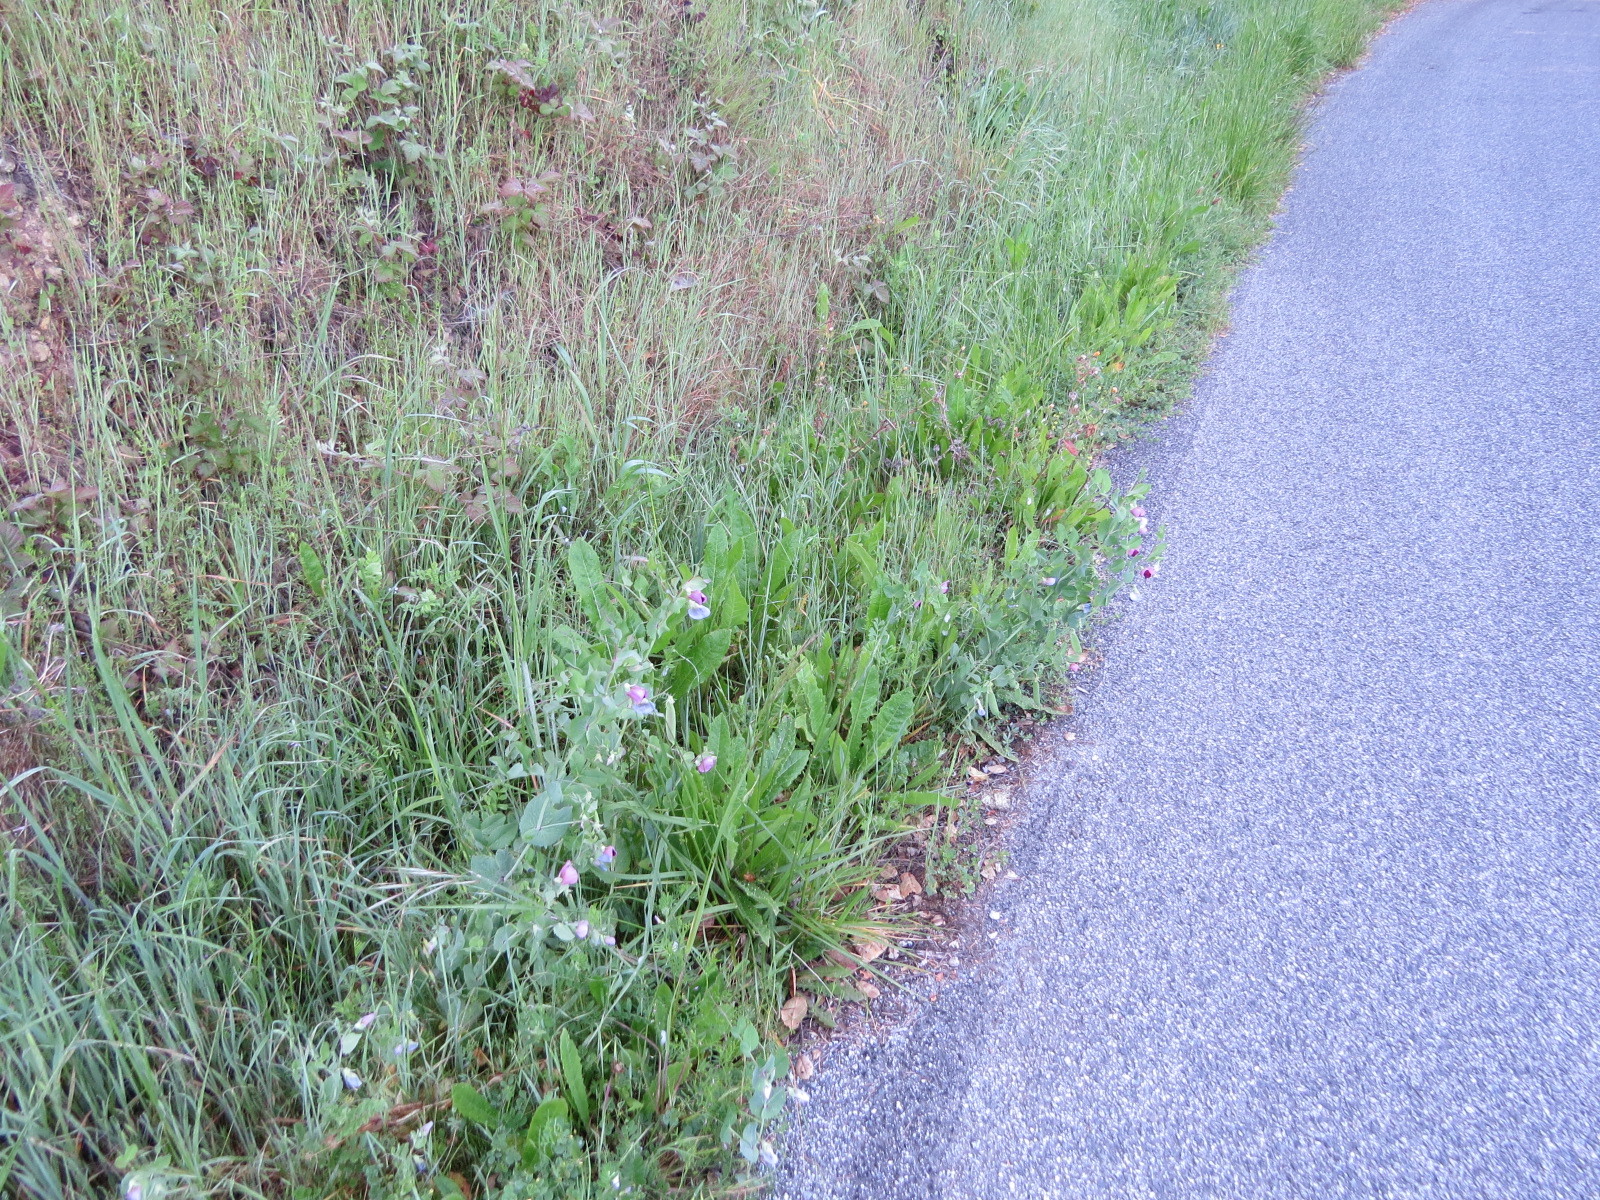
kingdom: Plantae
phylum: Tracheophyta
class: Magnoliopsida
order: Fabales
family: Fabaceae
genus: Lathyrus
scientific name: Lathyrus oleraceus
